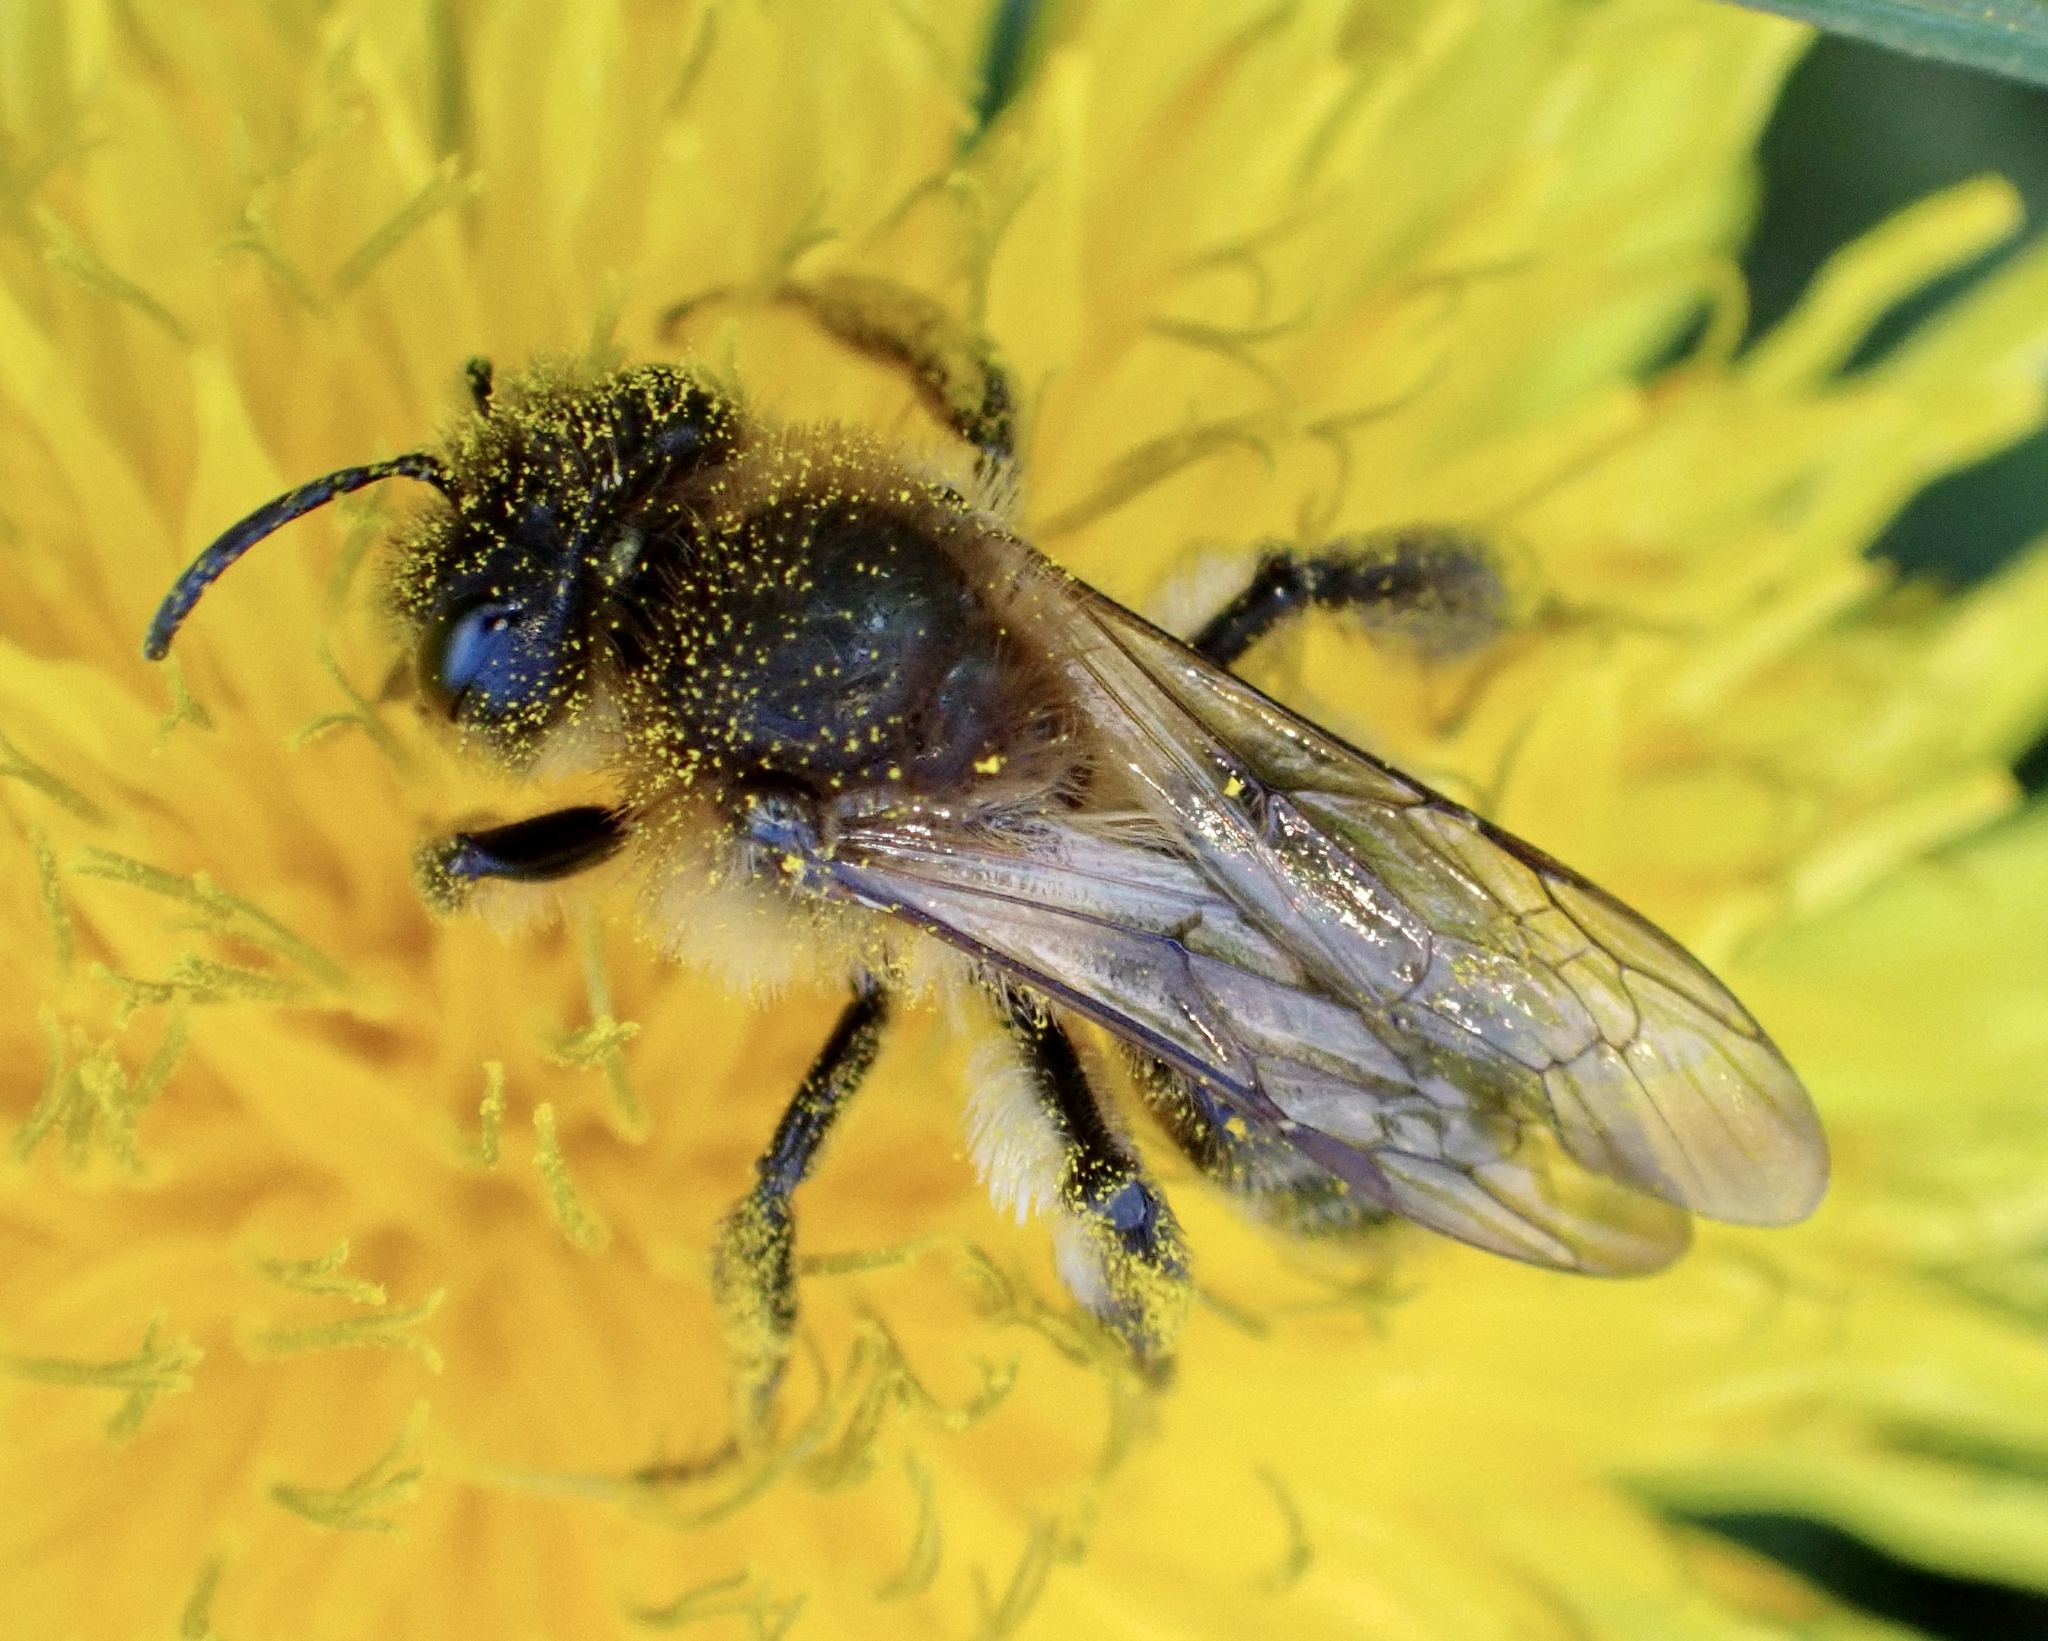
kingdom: Animalia
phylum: Arthropoda
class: Insecta
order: Hymenoptera
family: Andrenidae
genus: Andrena
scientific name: Andrena carantonica
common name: Chocolate mining bee
